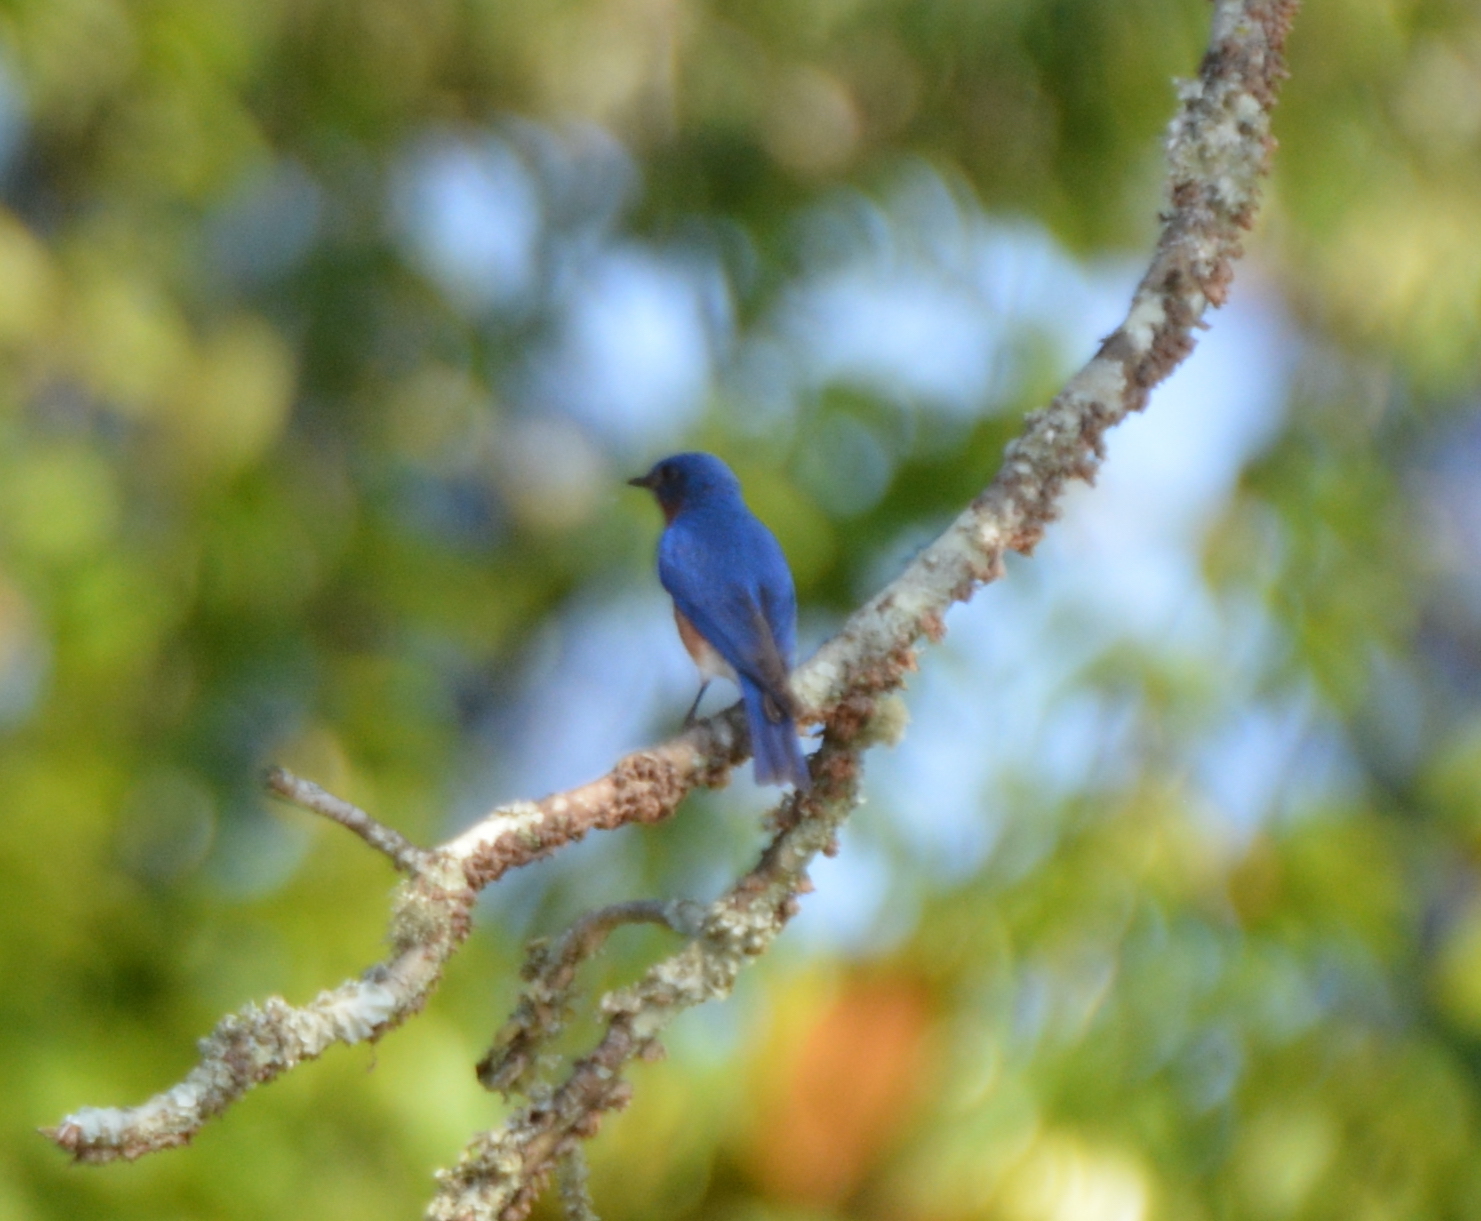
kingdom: Animalia
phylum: Chordata
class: Aves
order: Passeriformes
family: Turdidae
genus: Sialia
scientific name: Sialia sialis
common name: Eastern bluebird
